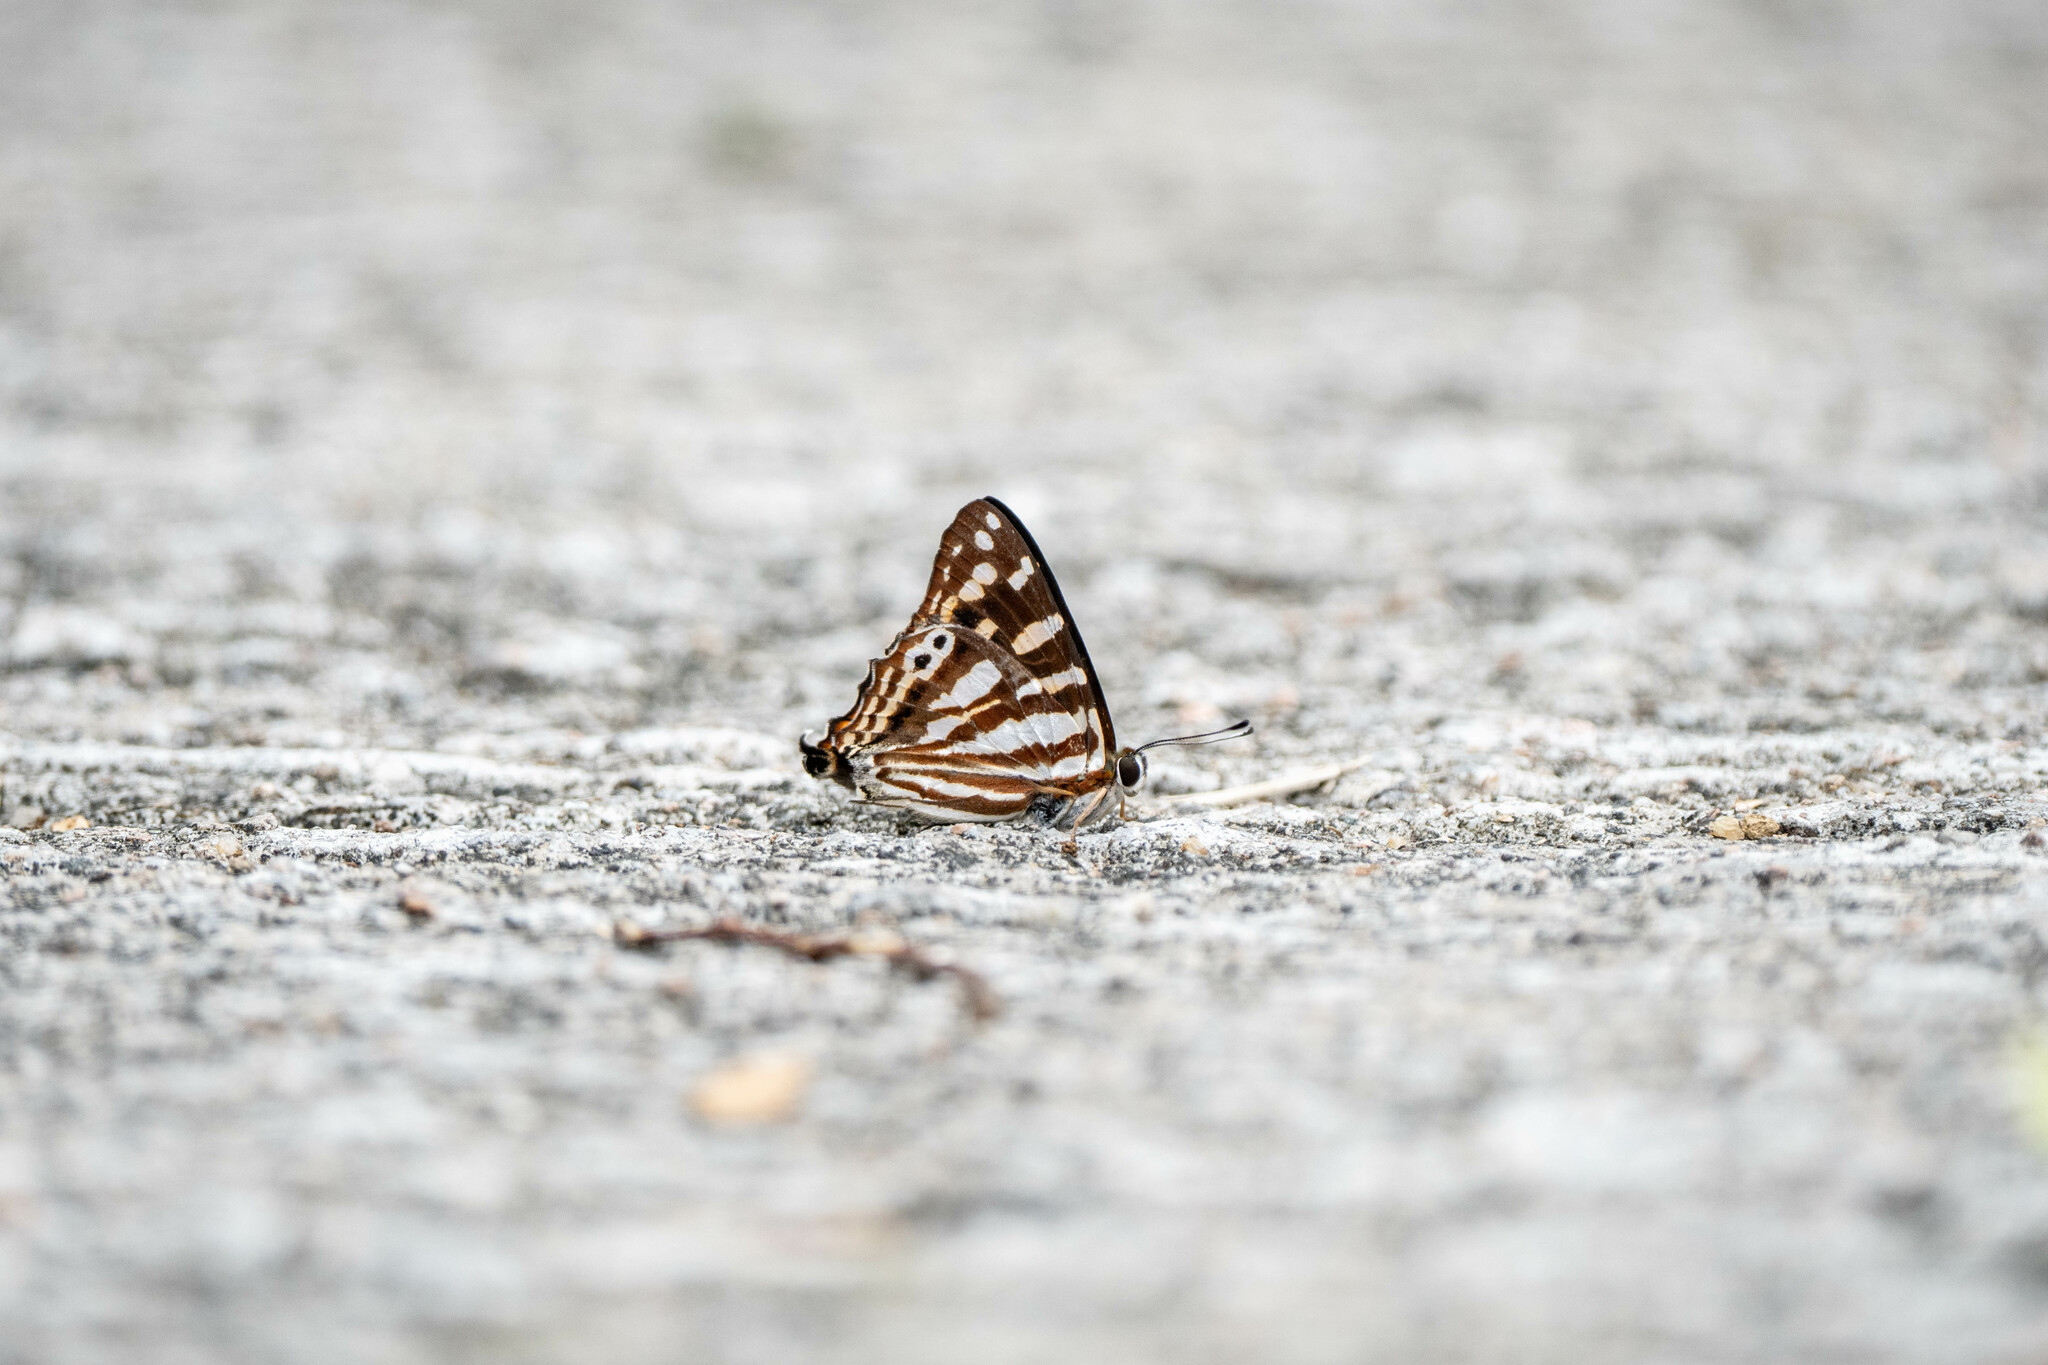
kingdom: Animalia
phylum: Arthropoda
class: Insecta
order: Lepidoptera
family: Lycaenidae
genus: Dodona
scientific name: Dodona egeon
